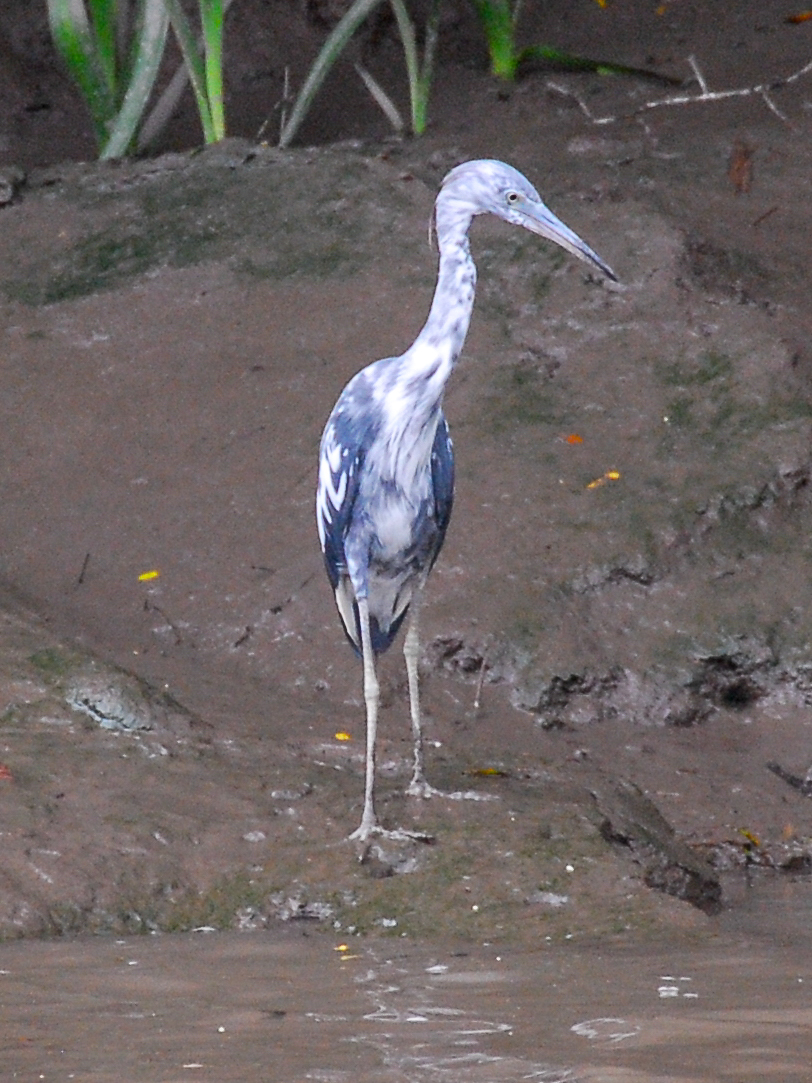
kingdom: Animalia
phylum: Chordata
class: Aves
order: Pelecaniformes
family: Ardeidae
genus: Egretta
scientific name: Egretta caerulea
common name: Little blue heron
